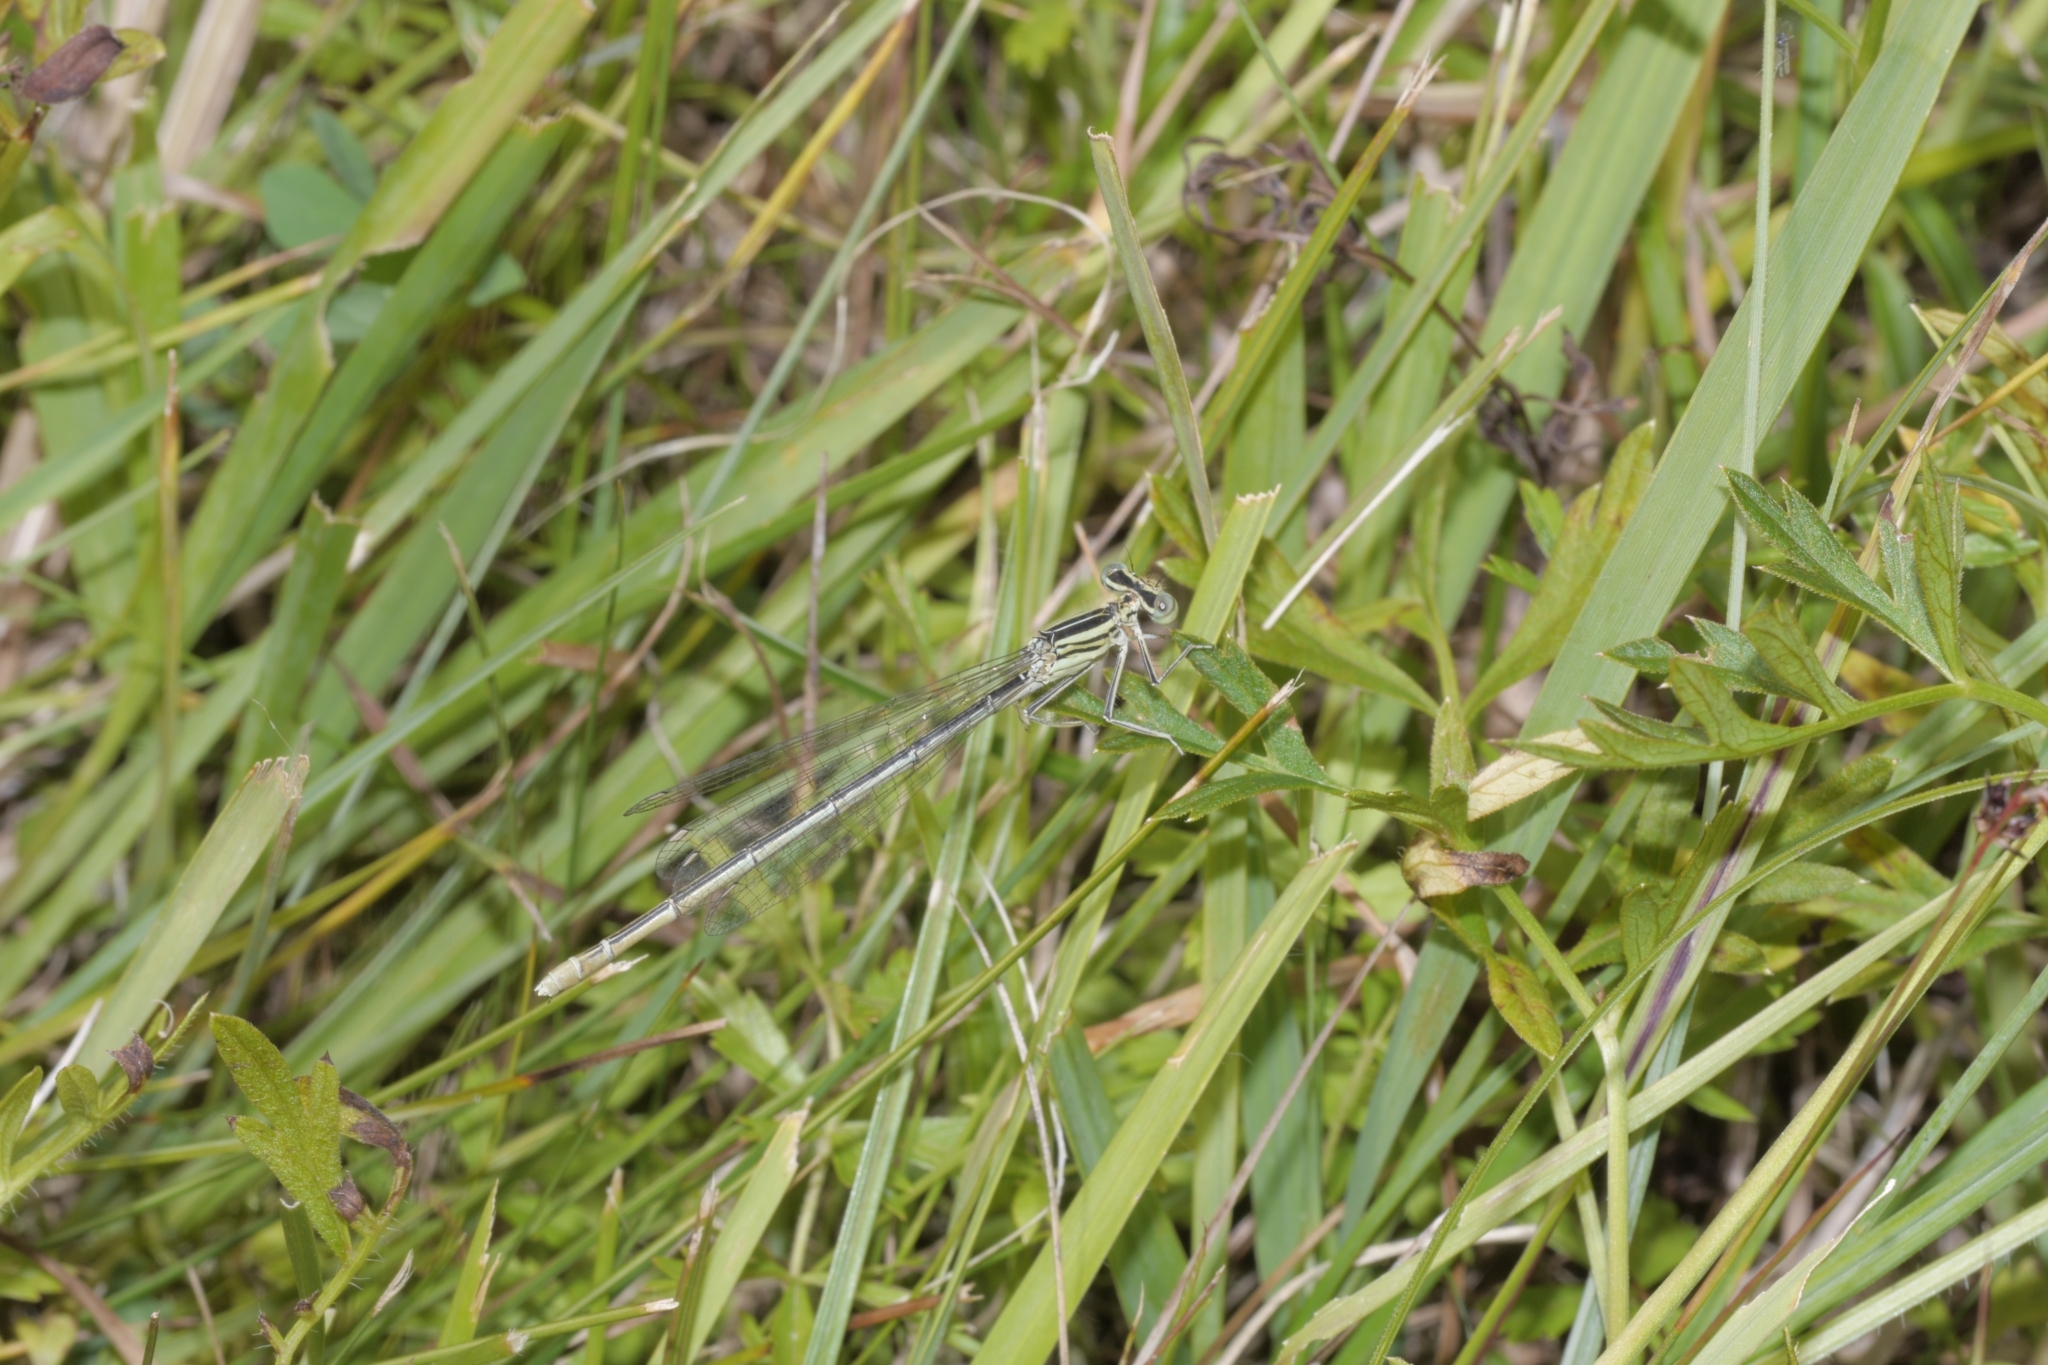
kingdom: Animalia
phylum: Arthropoda
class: Insecta
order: Odonata
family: Platycnemididae
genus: Platycnemis
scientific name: Platycnemis pennipes
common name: White-legged damselfly
